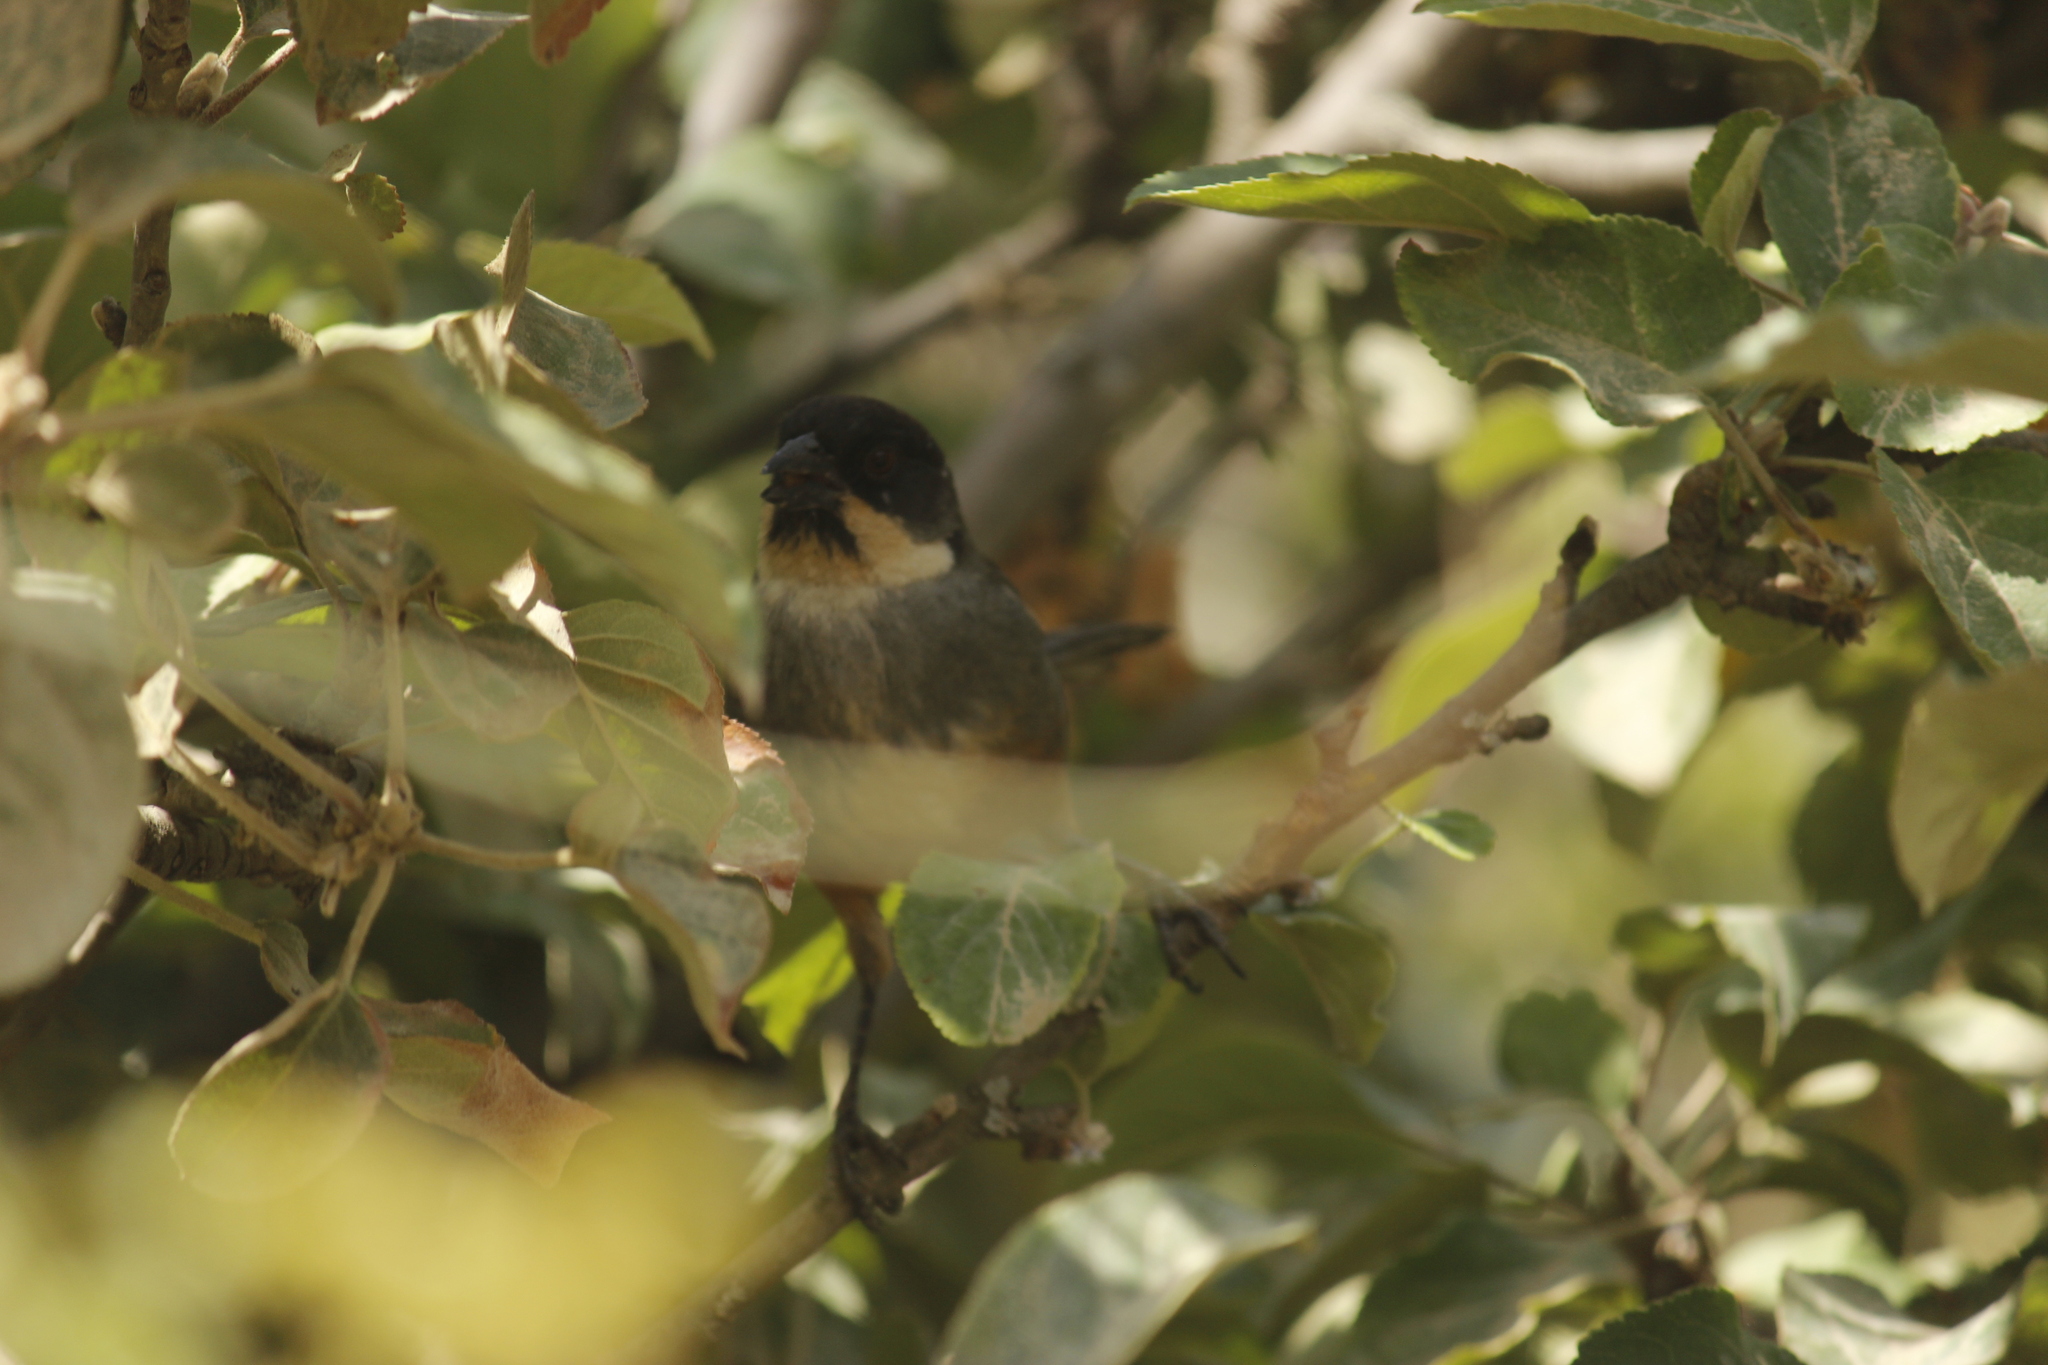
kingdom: Animalia
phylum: Chordata
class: Aves
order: Passeriformes
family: Passerellidae
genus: Atlapetes
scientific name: Atlapetes nationi
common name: Rusty-bellied brushfinch
